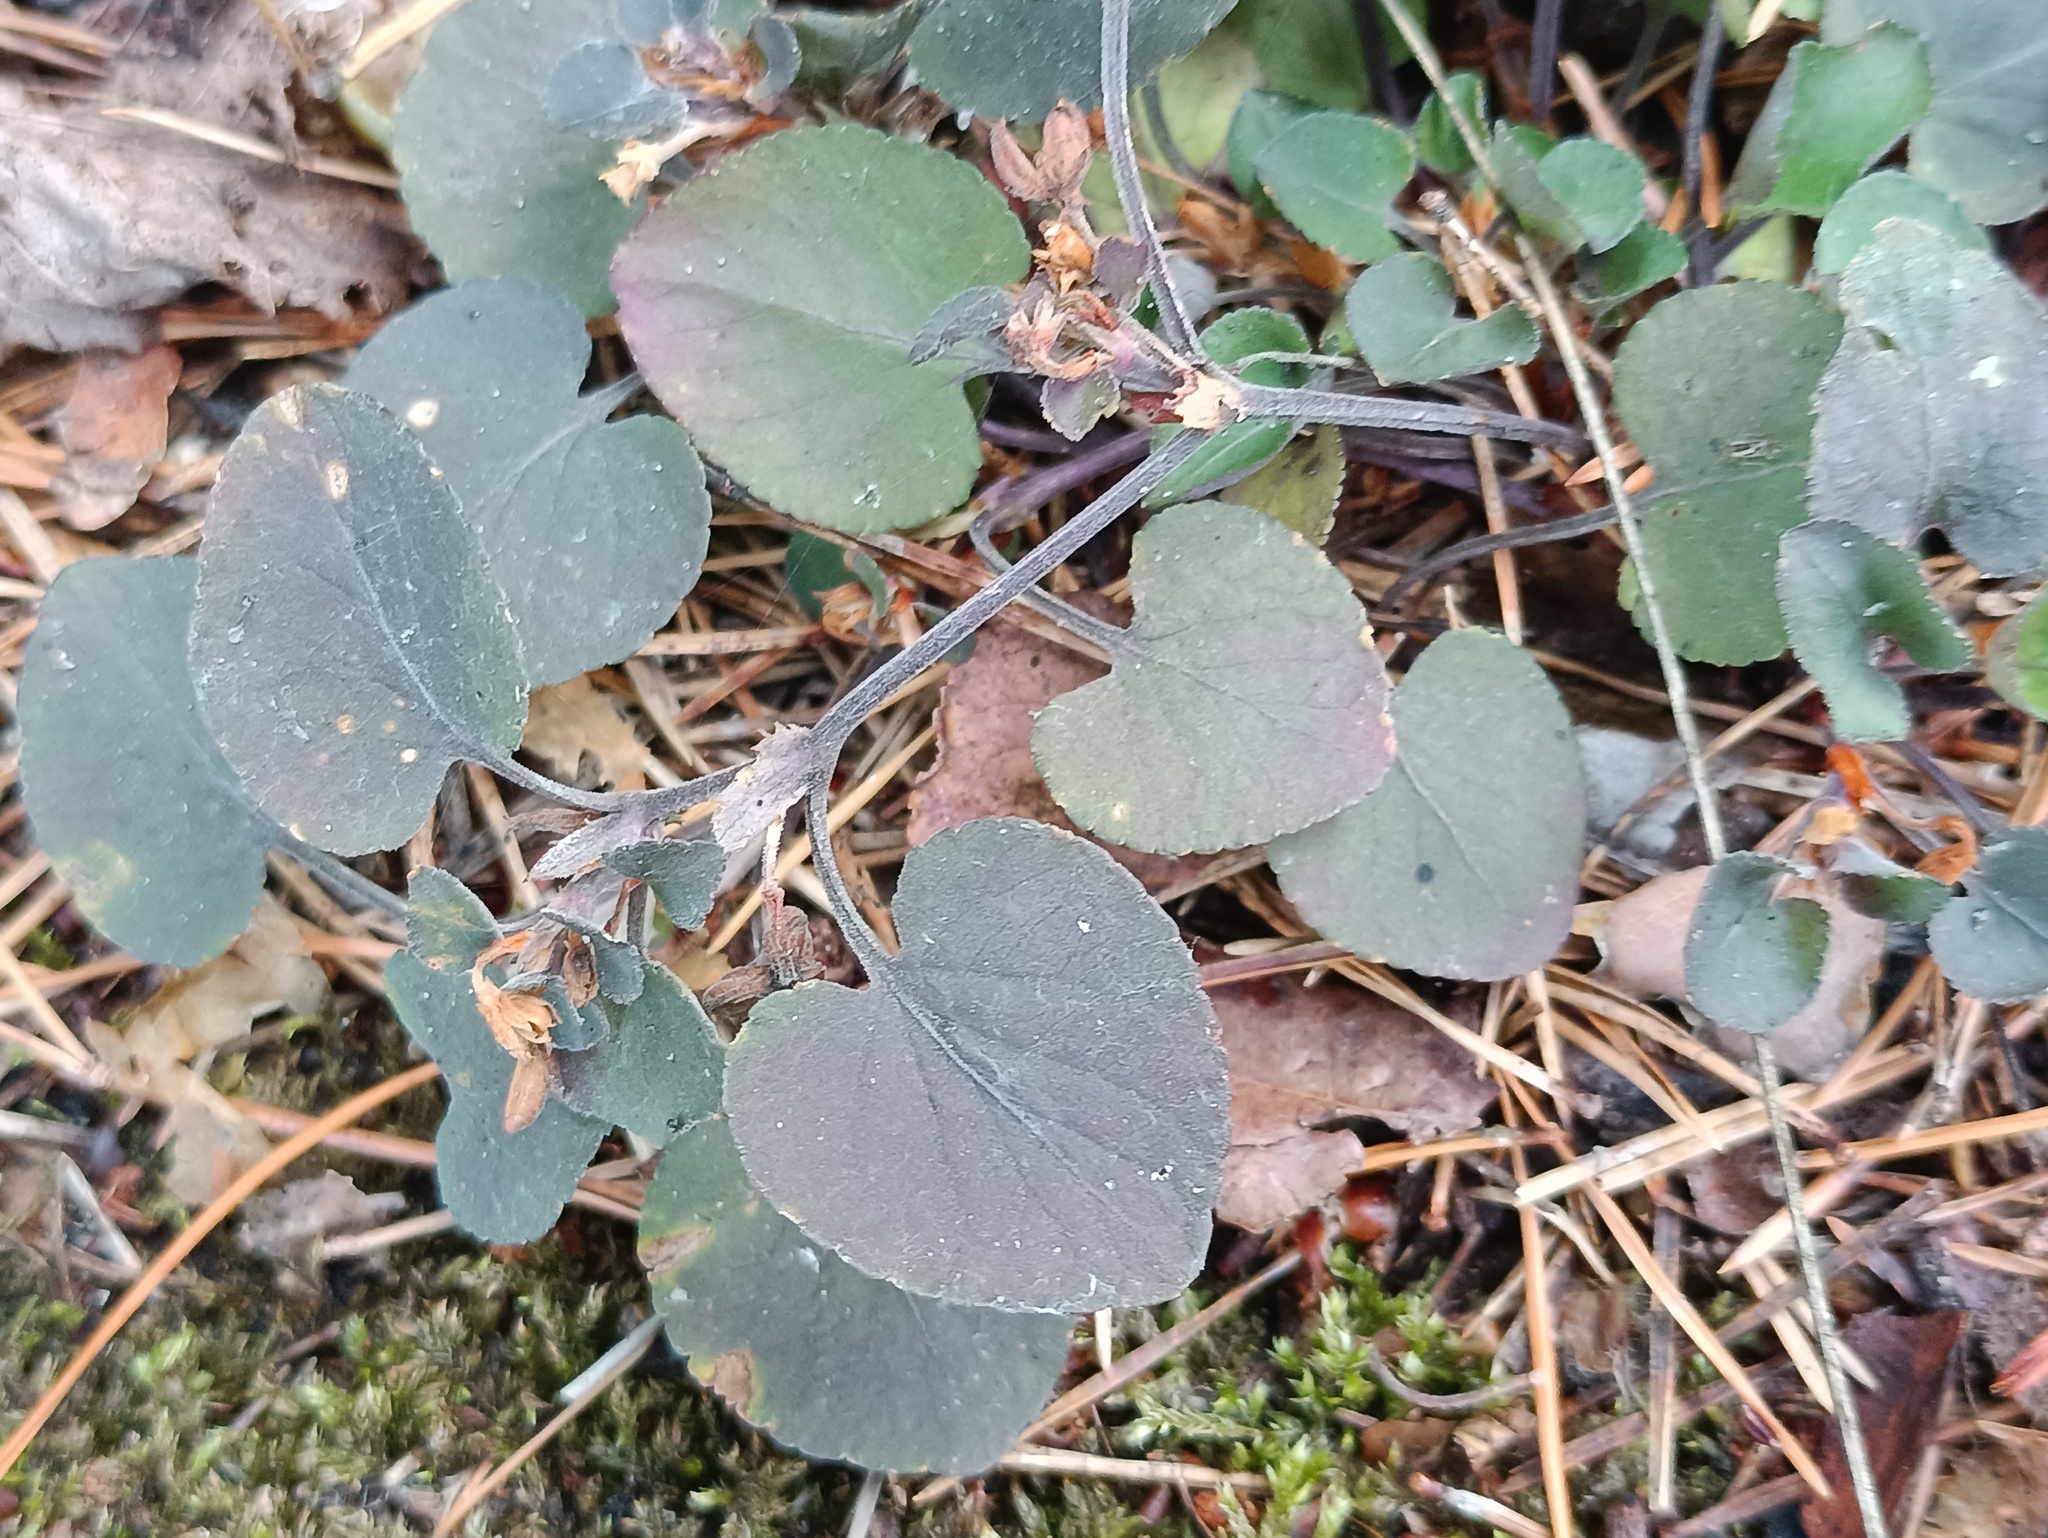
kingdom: Plantae
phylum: Tracheophyta
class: Magnoliopsida
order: Malpighiales
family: Violaceae
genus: Viola
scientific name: Viola rupestris
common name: Teesdale violet
